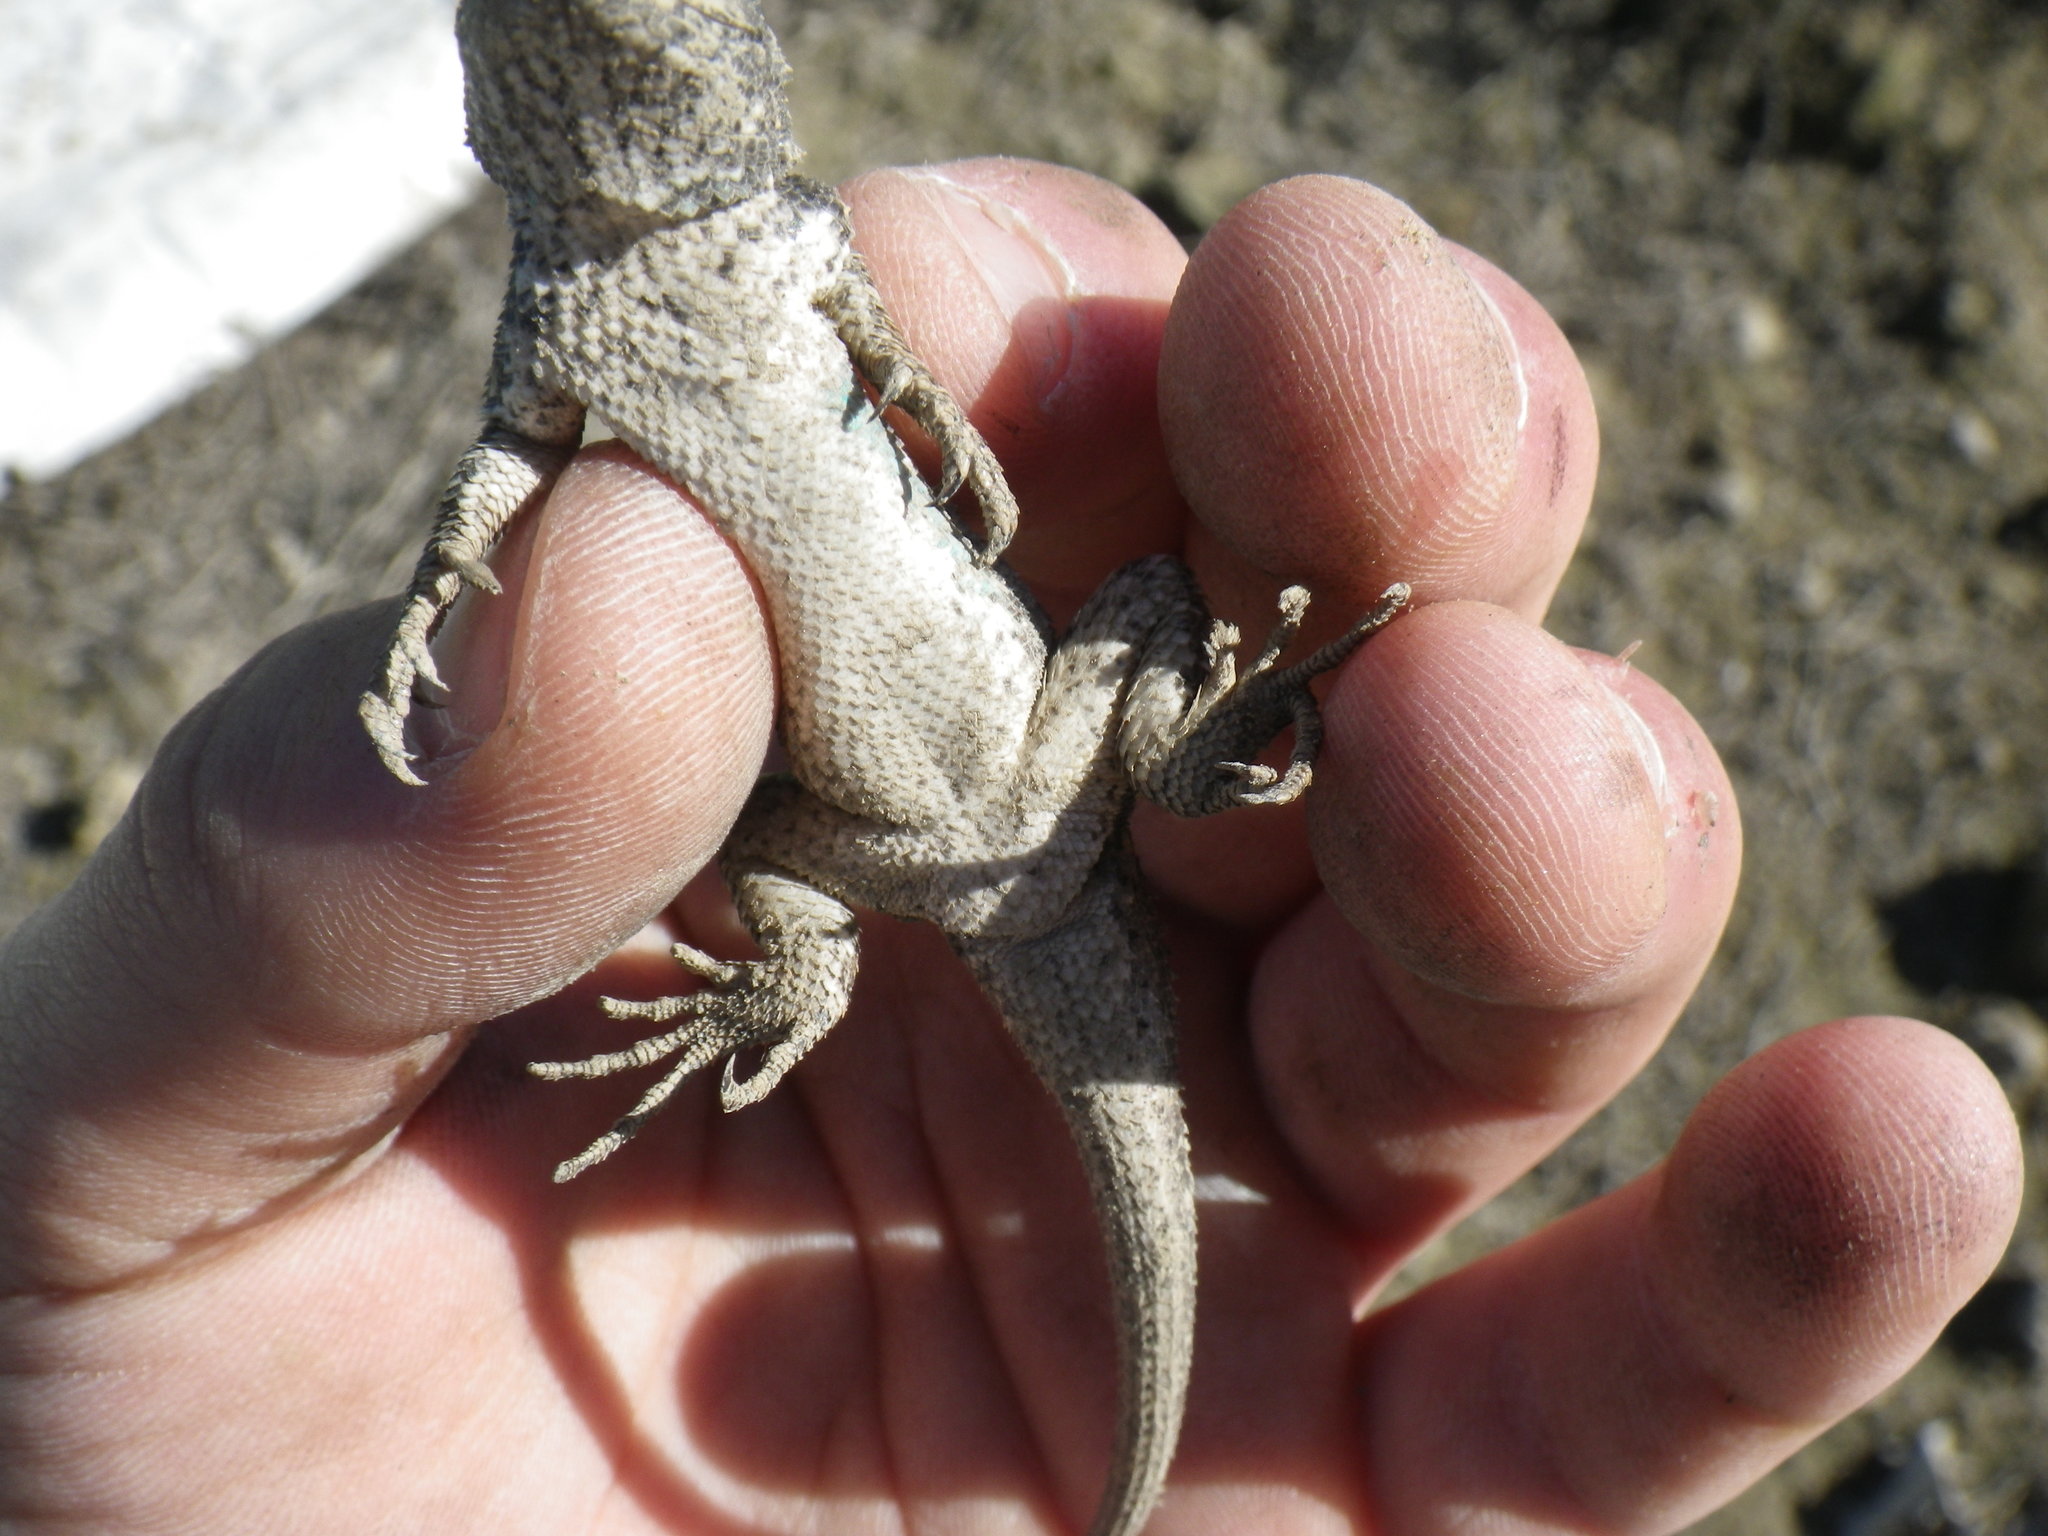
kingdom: Animalia
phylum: Chordata
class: Squamata
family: Phrynosomatidae
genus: Sceloporus
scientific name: Sceloporus occidentalis
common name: Western fence lizard
